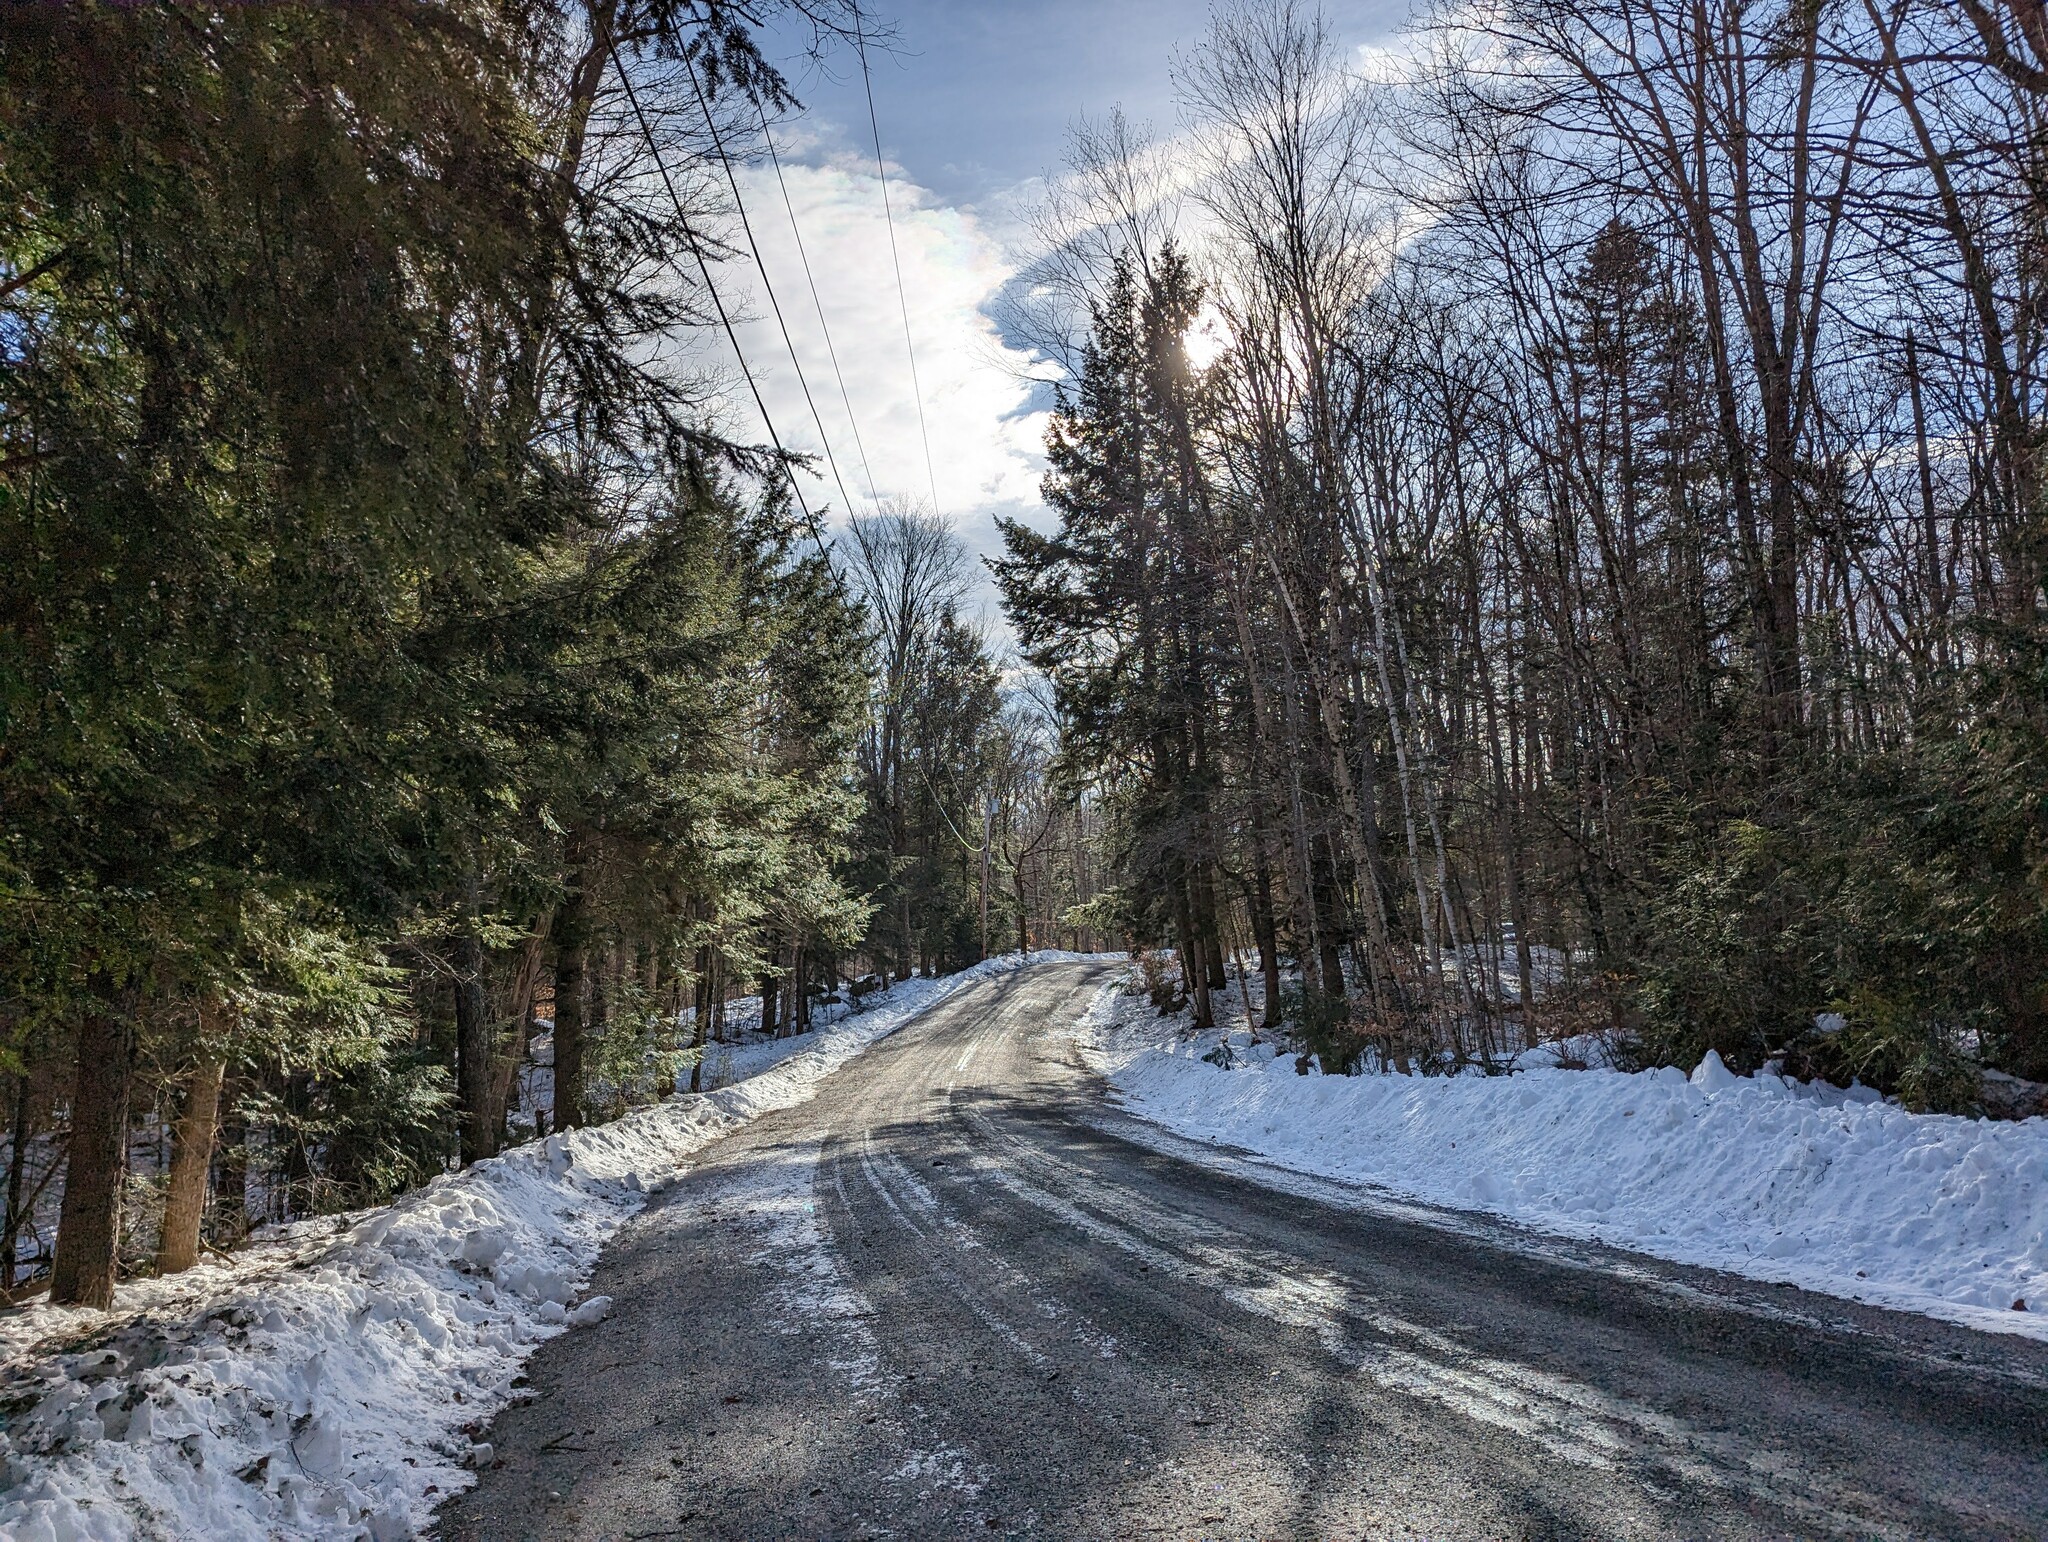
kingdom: Plantae
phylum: Tracheophyta
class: Pinopsida
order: Pinales
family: Pinaceae
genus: Tsuga
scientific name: Tsuga canadensis
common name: Eastern hemlock
